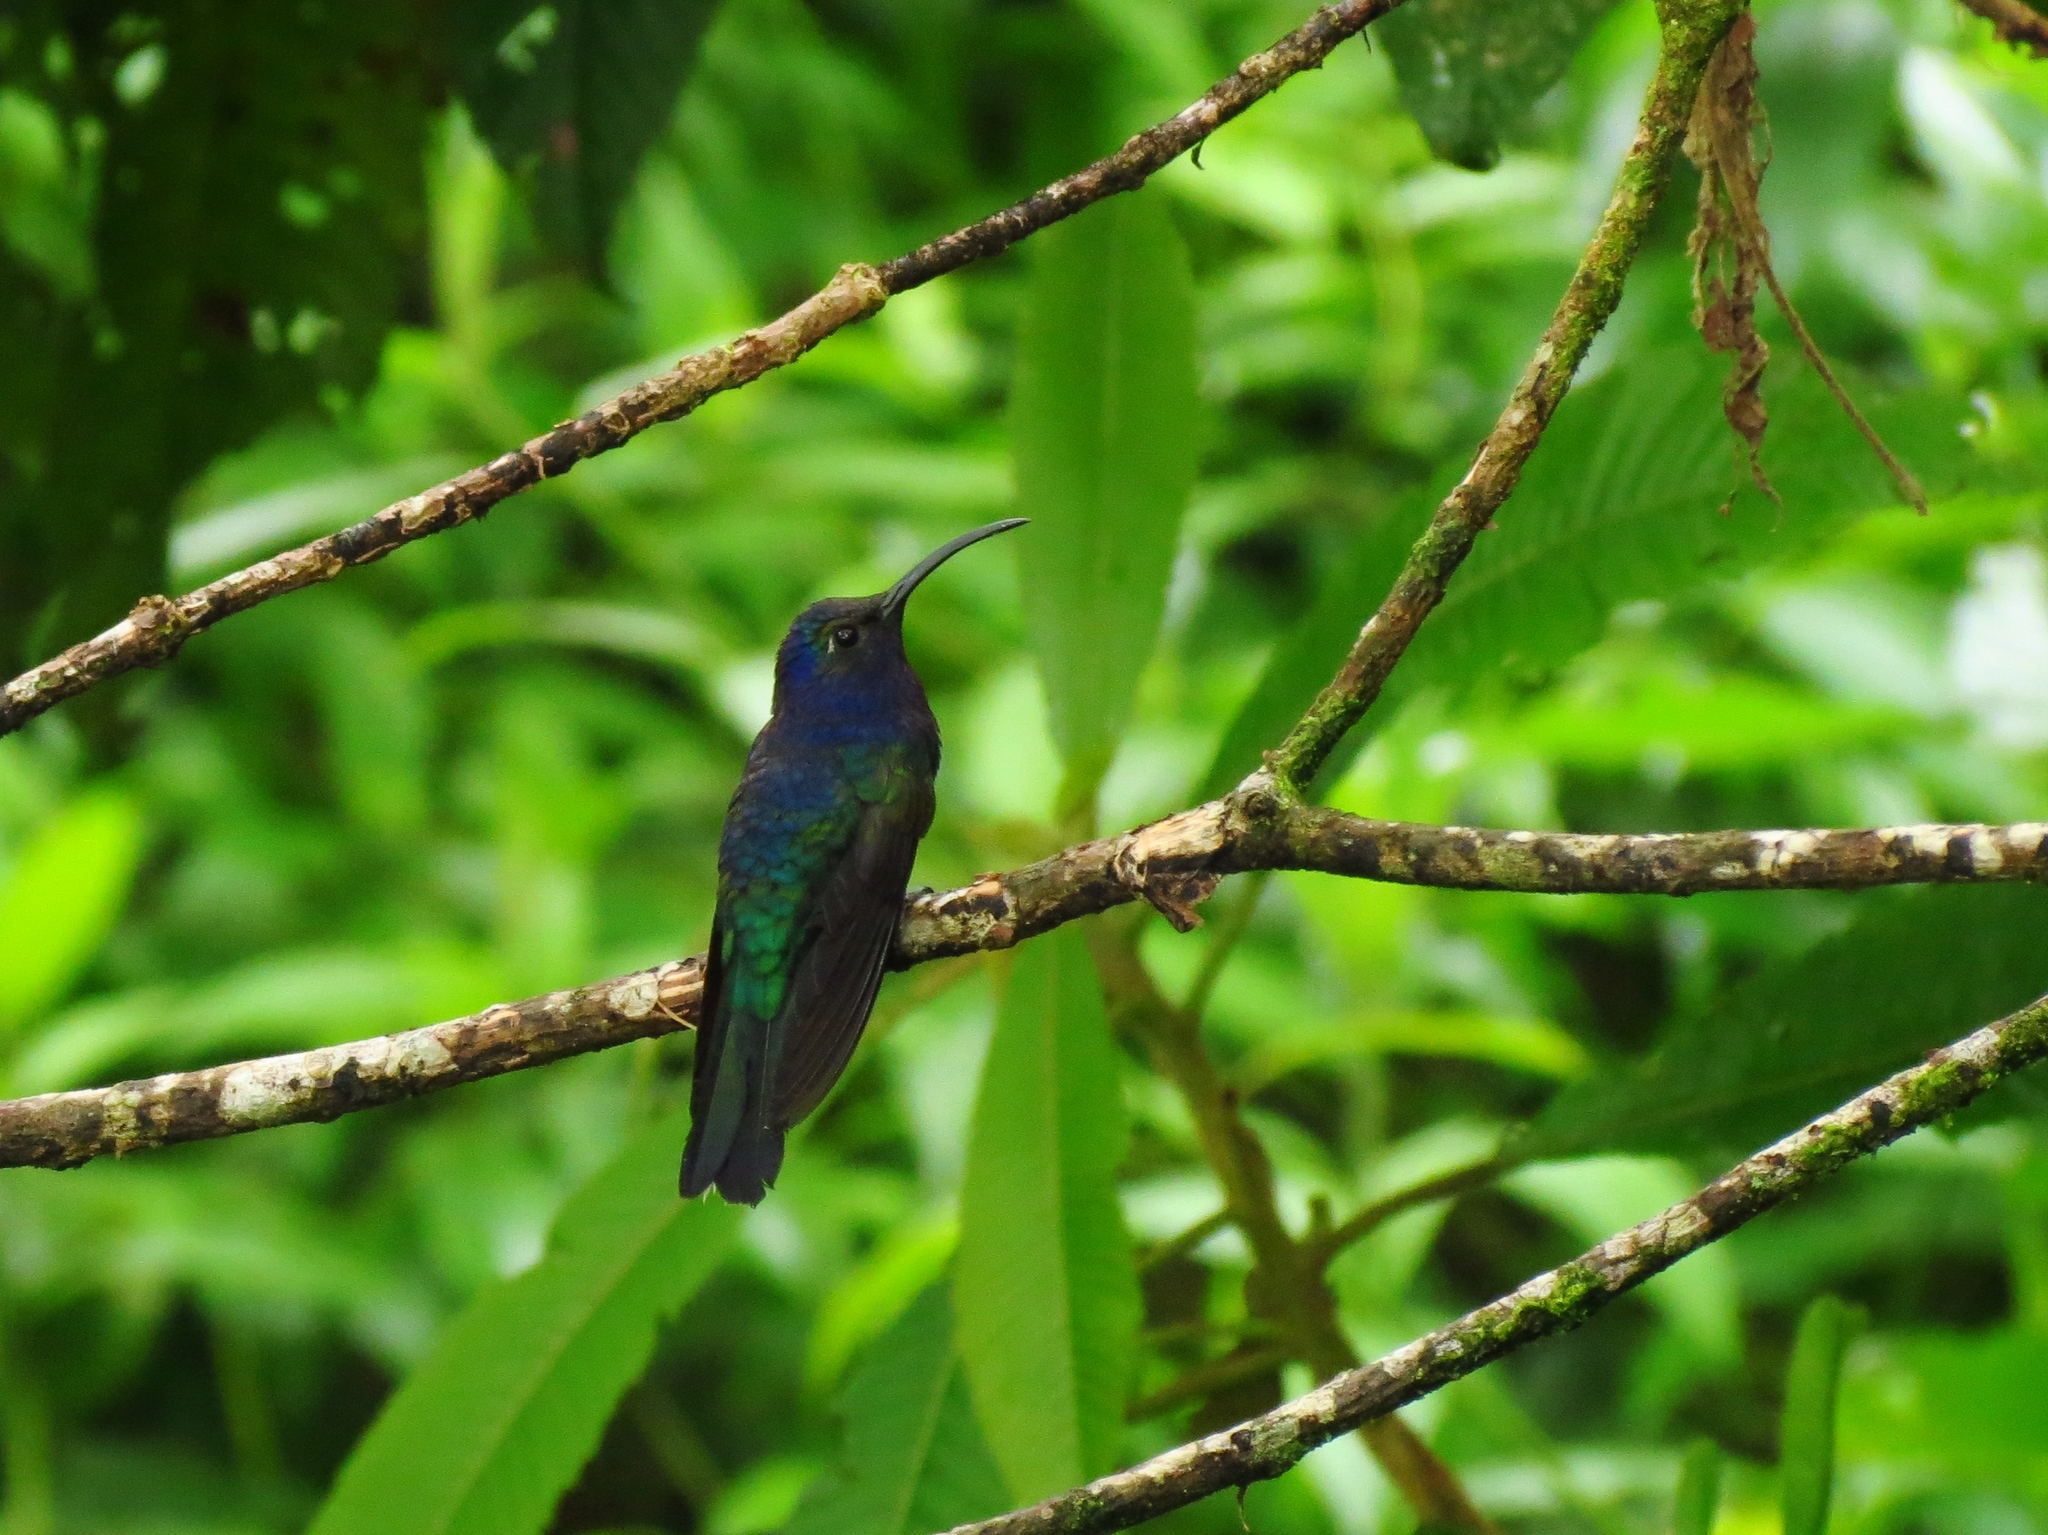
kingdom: Animalia
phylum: Chordata
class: Aves
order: Apodiformes
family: Trochilidae
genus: Campylopterus
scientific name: Campylopterus hemileucurus
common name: Violet sabrewing
